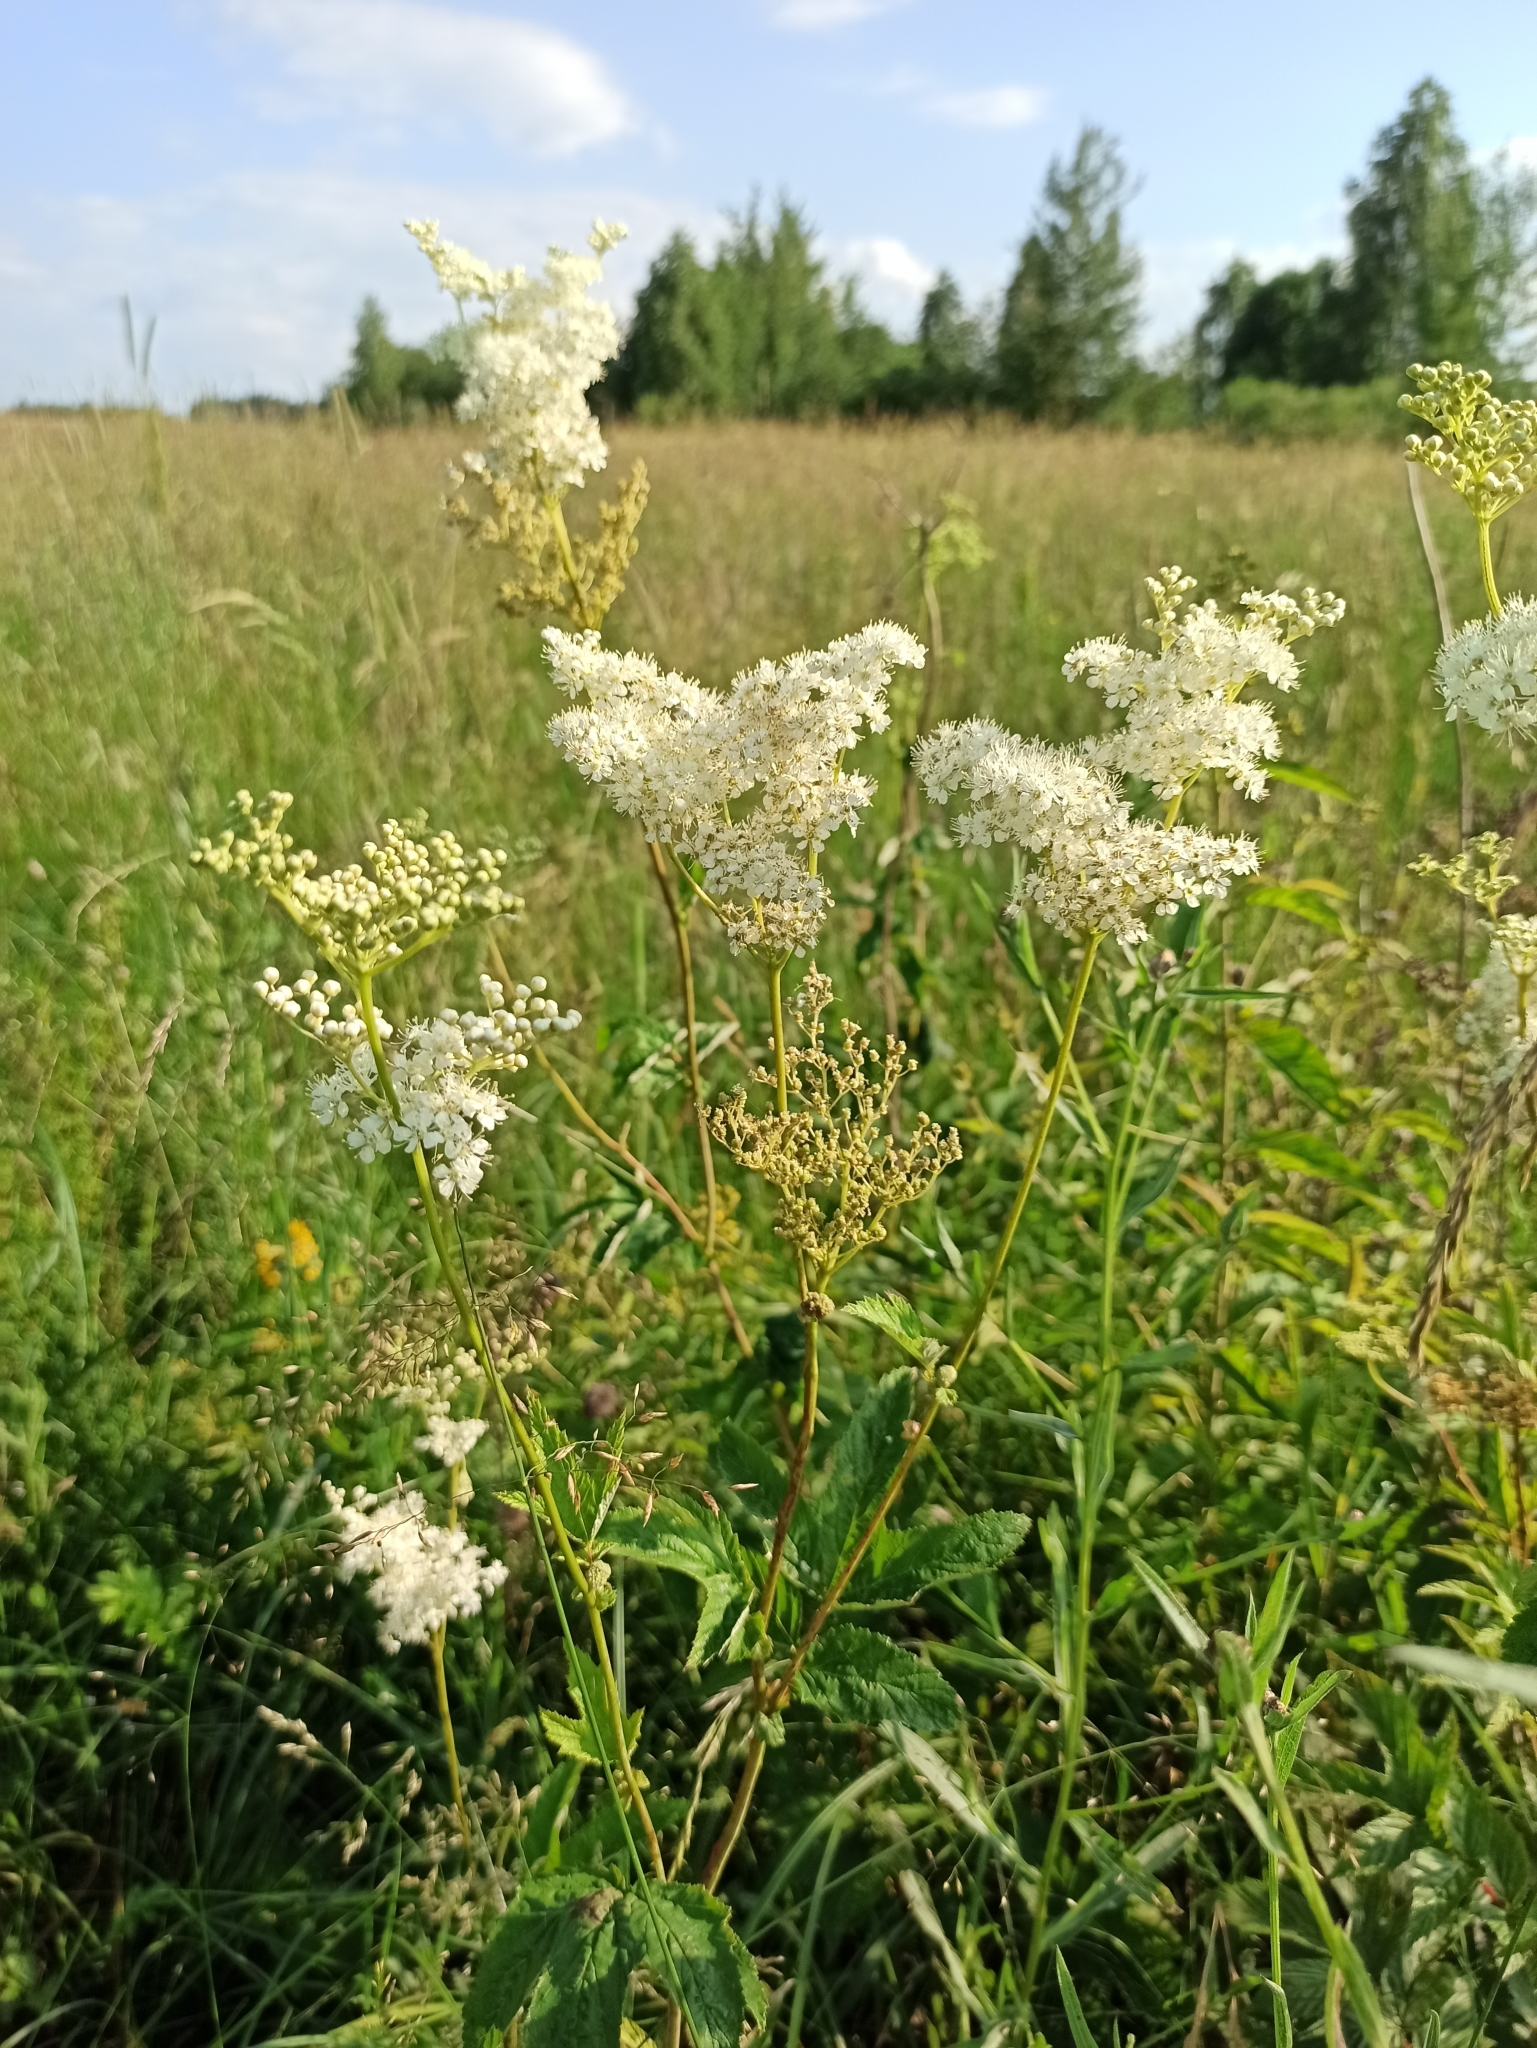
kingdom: Plantae
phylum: Tracheophyta
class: Magnoliopsida
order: Rosales
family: Rosaceae
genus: Filipendula
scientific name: Filipendula ulmaria
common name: Meadowsweet
